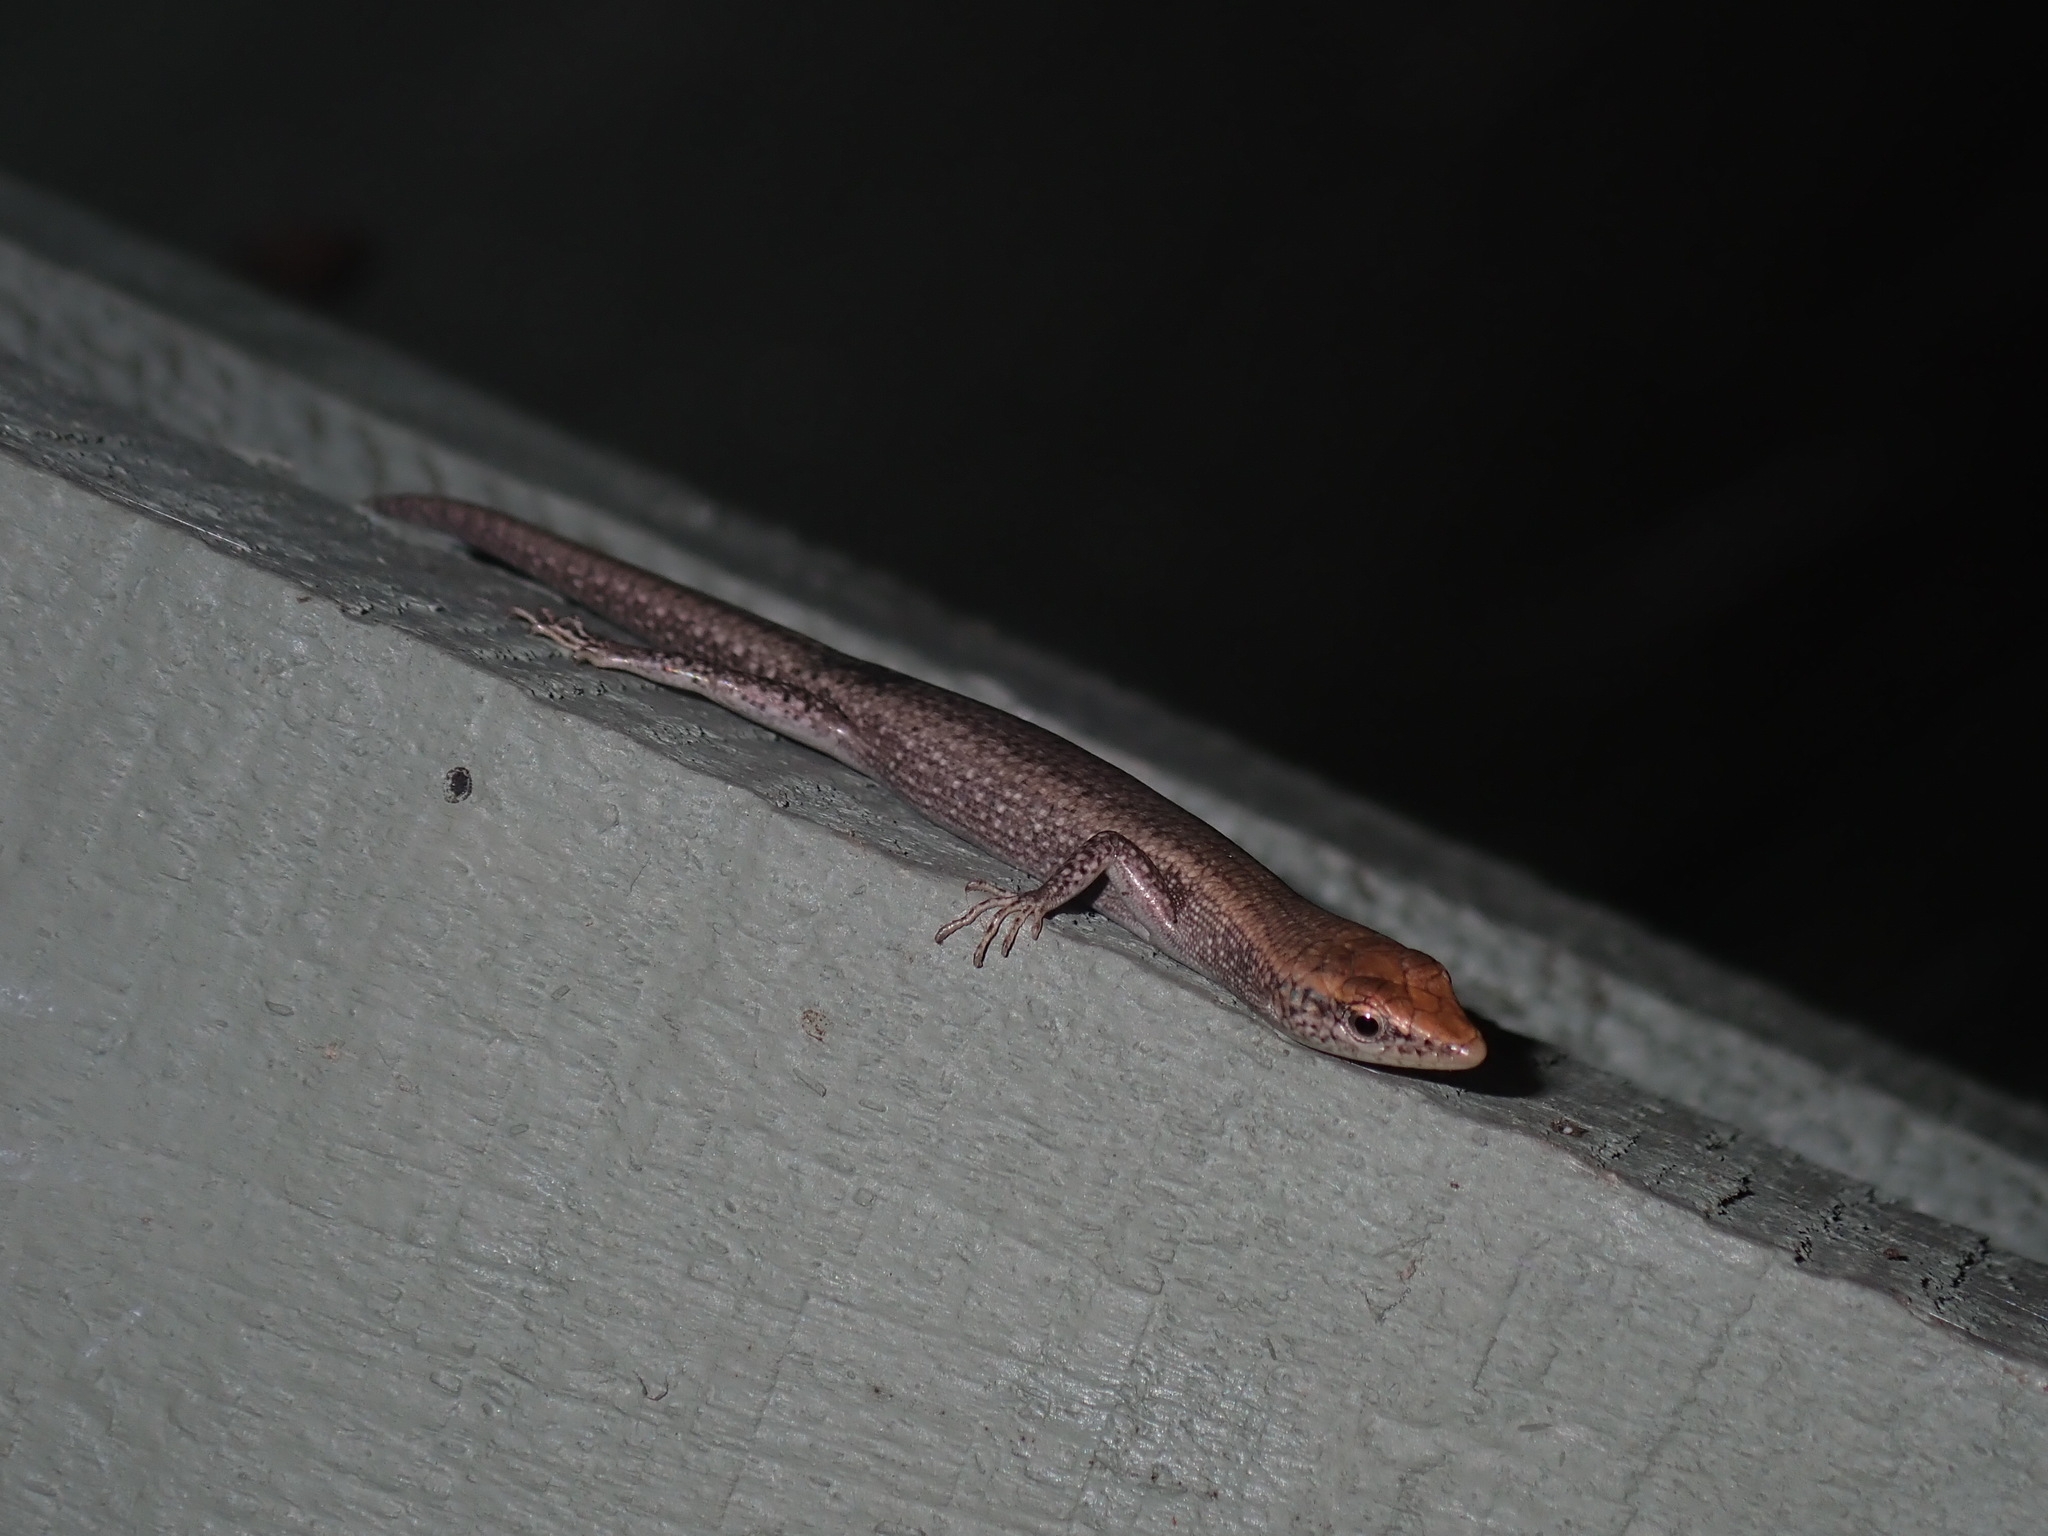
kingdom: Animalia
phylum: Chordata
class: Squamata
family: Scincidae
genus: Cryptoblepharus
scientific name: Cryptoblepharus
